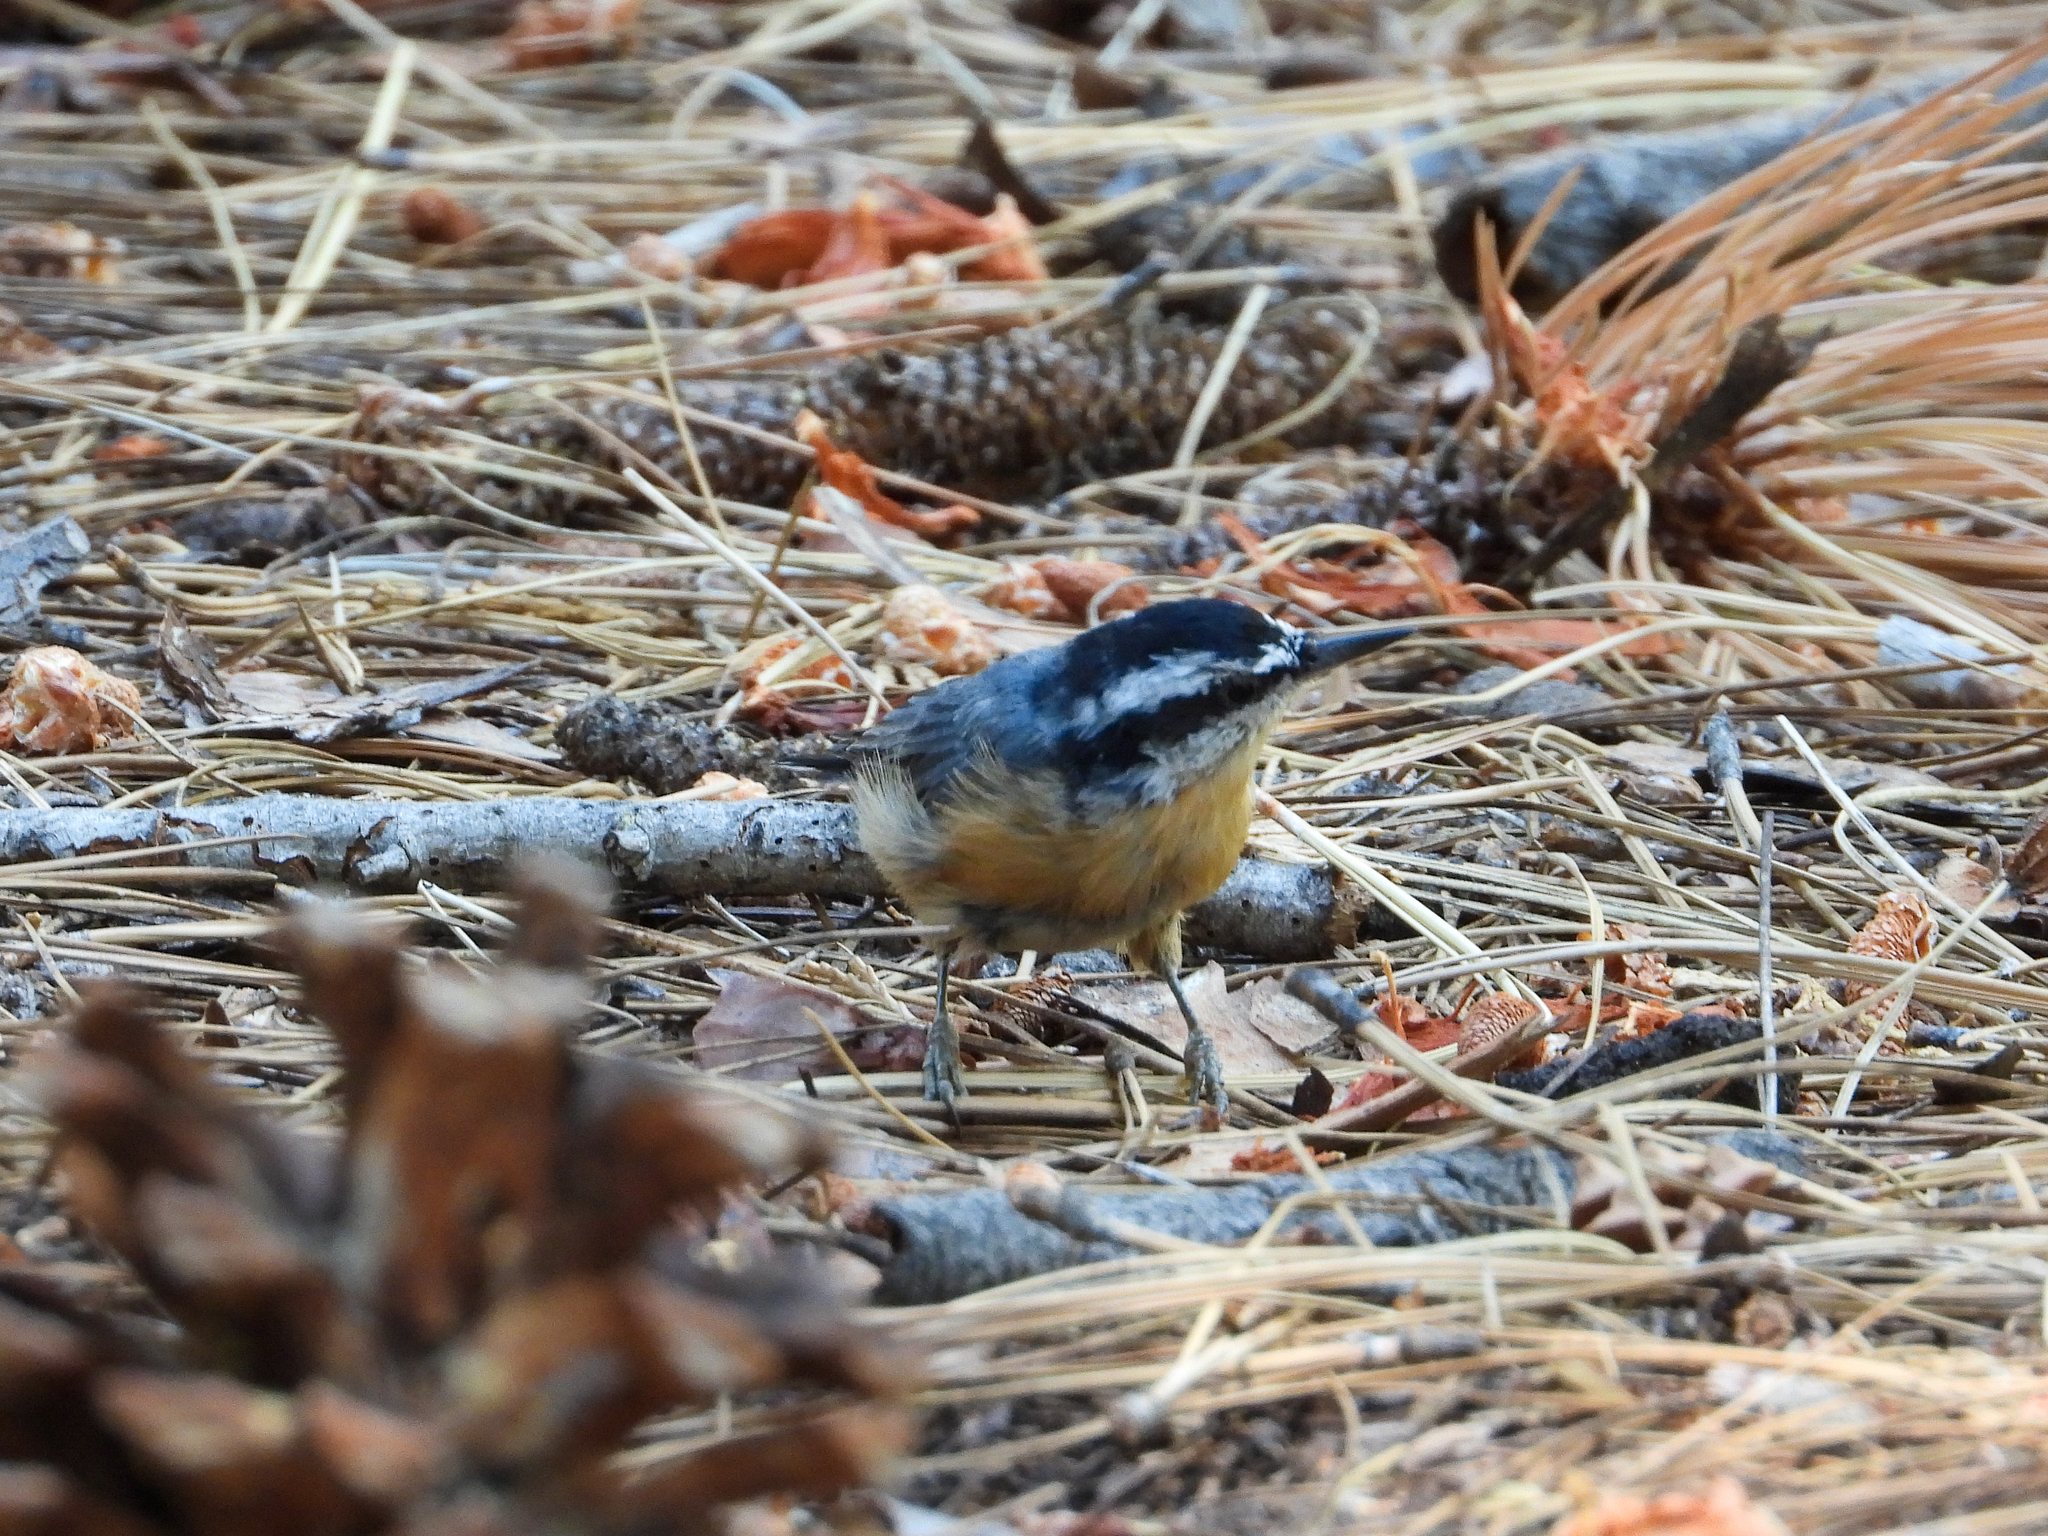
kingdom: Animalia
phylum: Chordata
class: Aves
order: Passeriformes
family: Sittidae
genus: Sitta
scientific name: Sitta canadensis
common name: Red-breasted nuthatch
